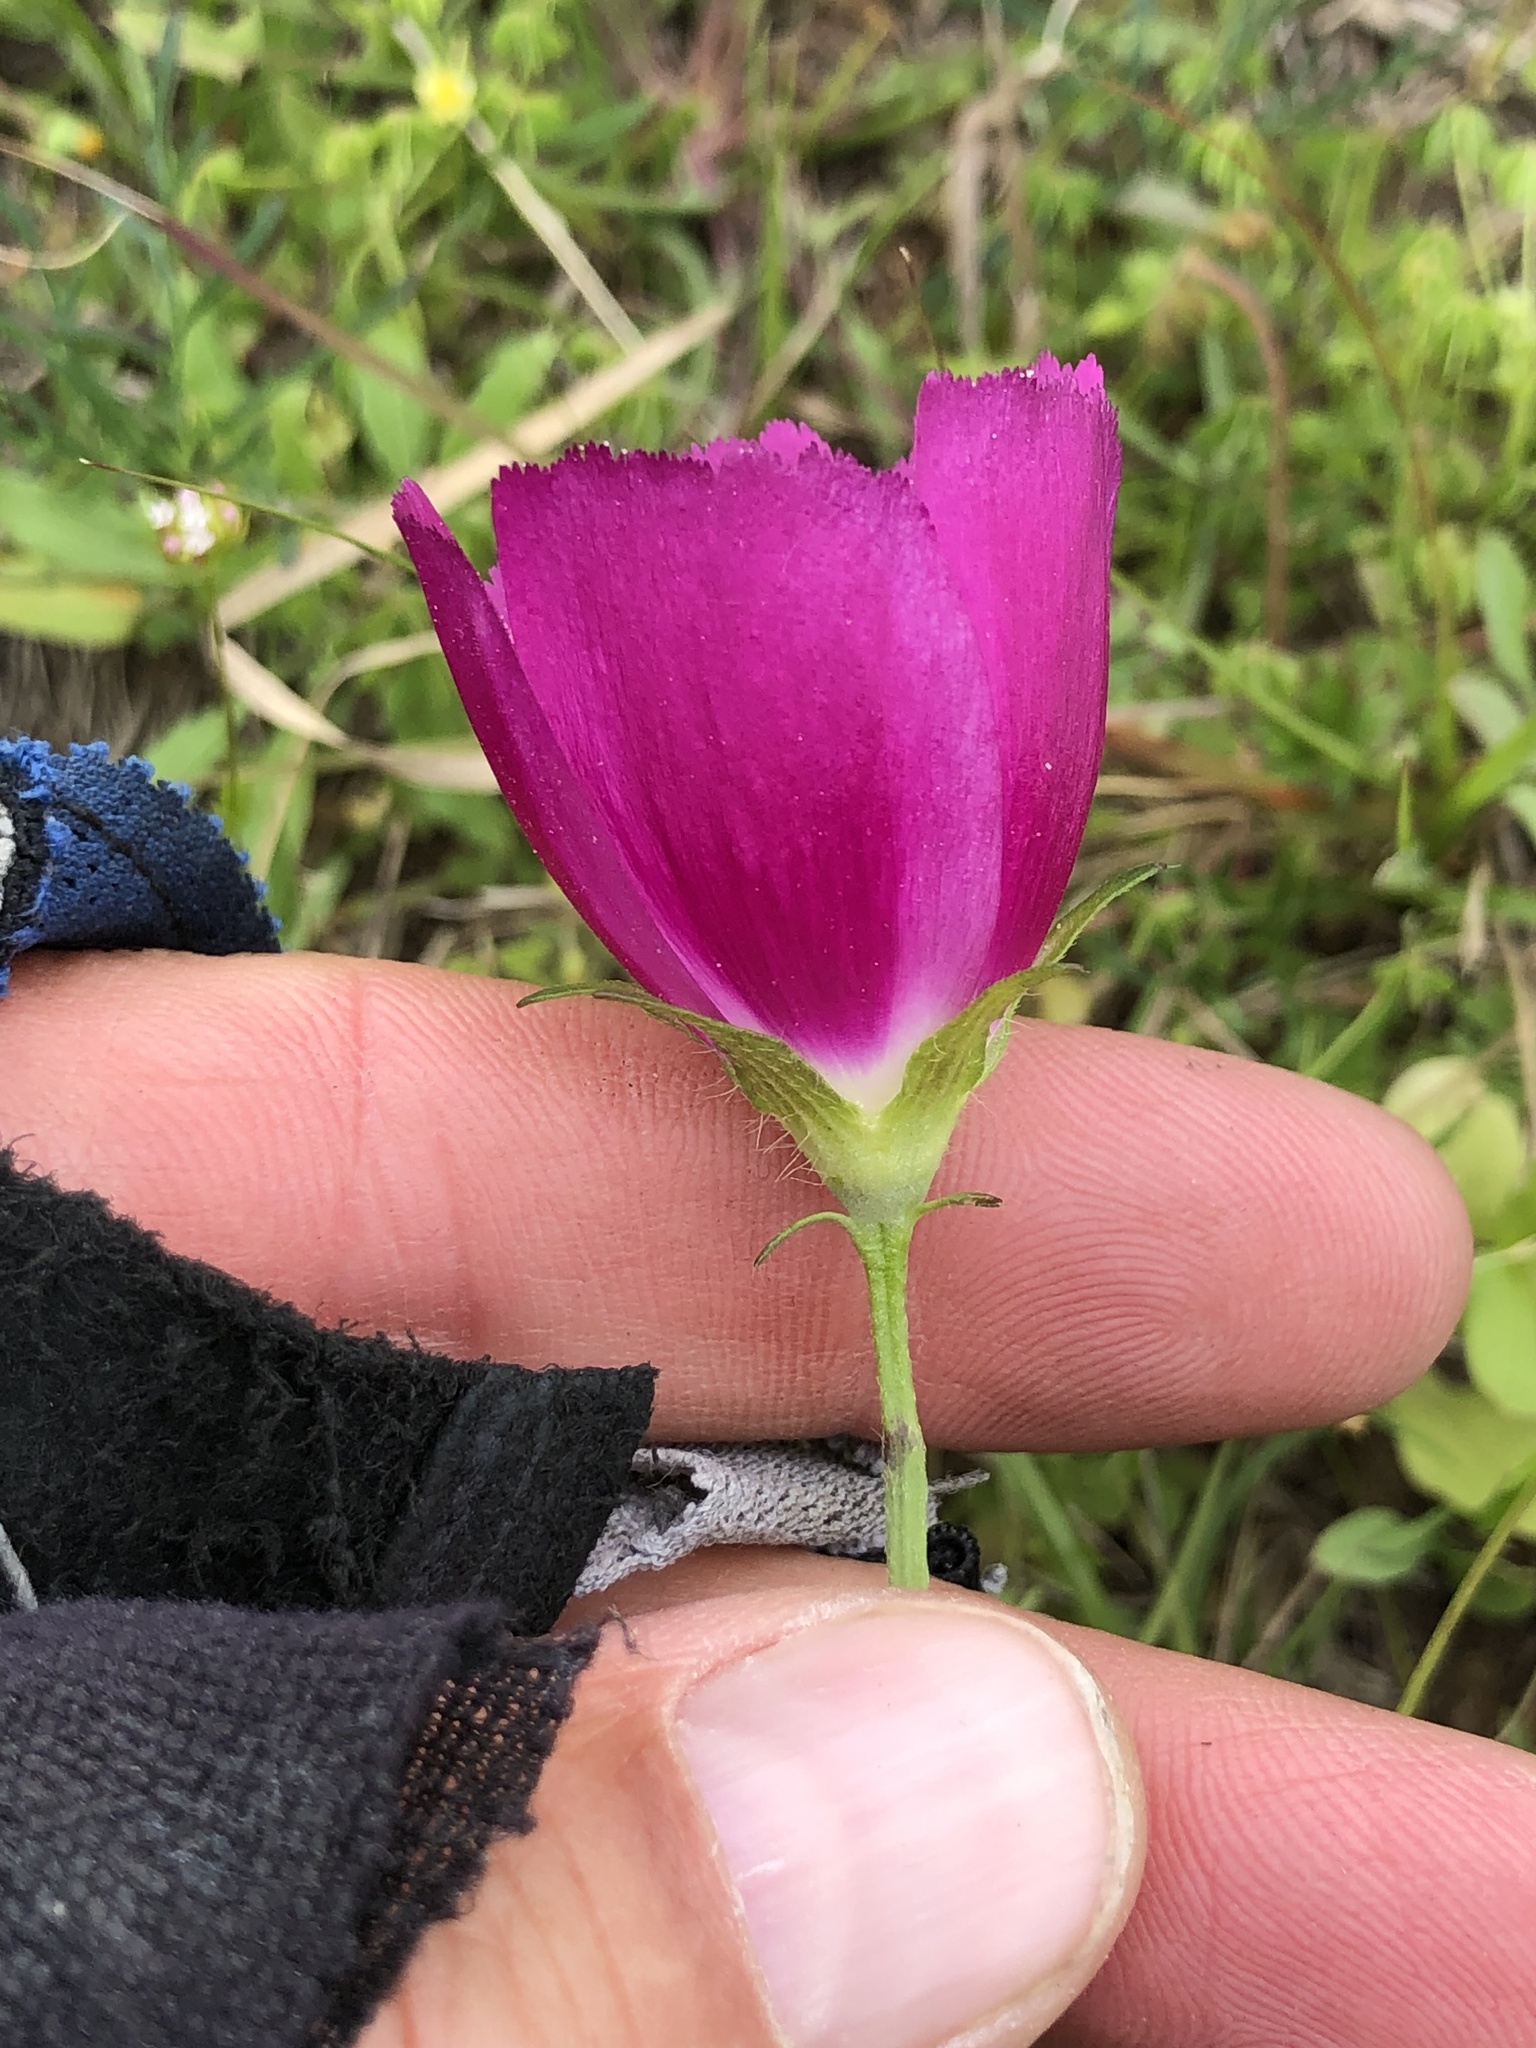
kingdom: Plantae
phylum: Tracheophyta
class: Magnoliopsida
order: Malvales
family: Malvaceae
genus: Callirhoe
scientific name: Callirhoe involucrata
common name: Purple poppy-mallow
